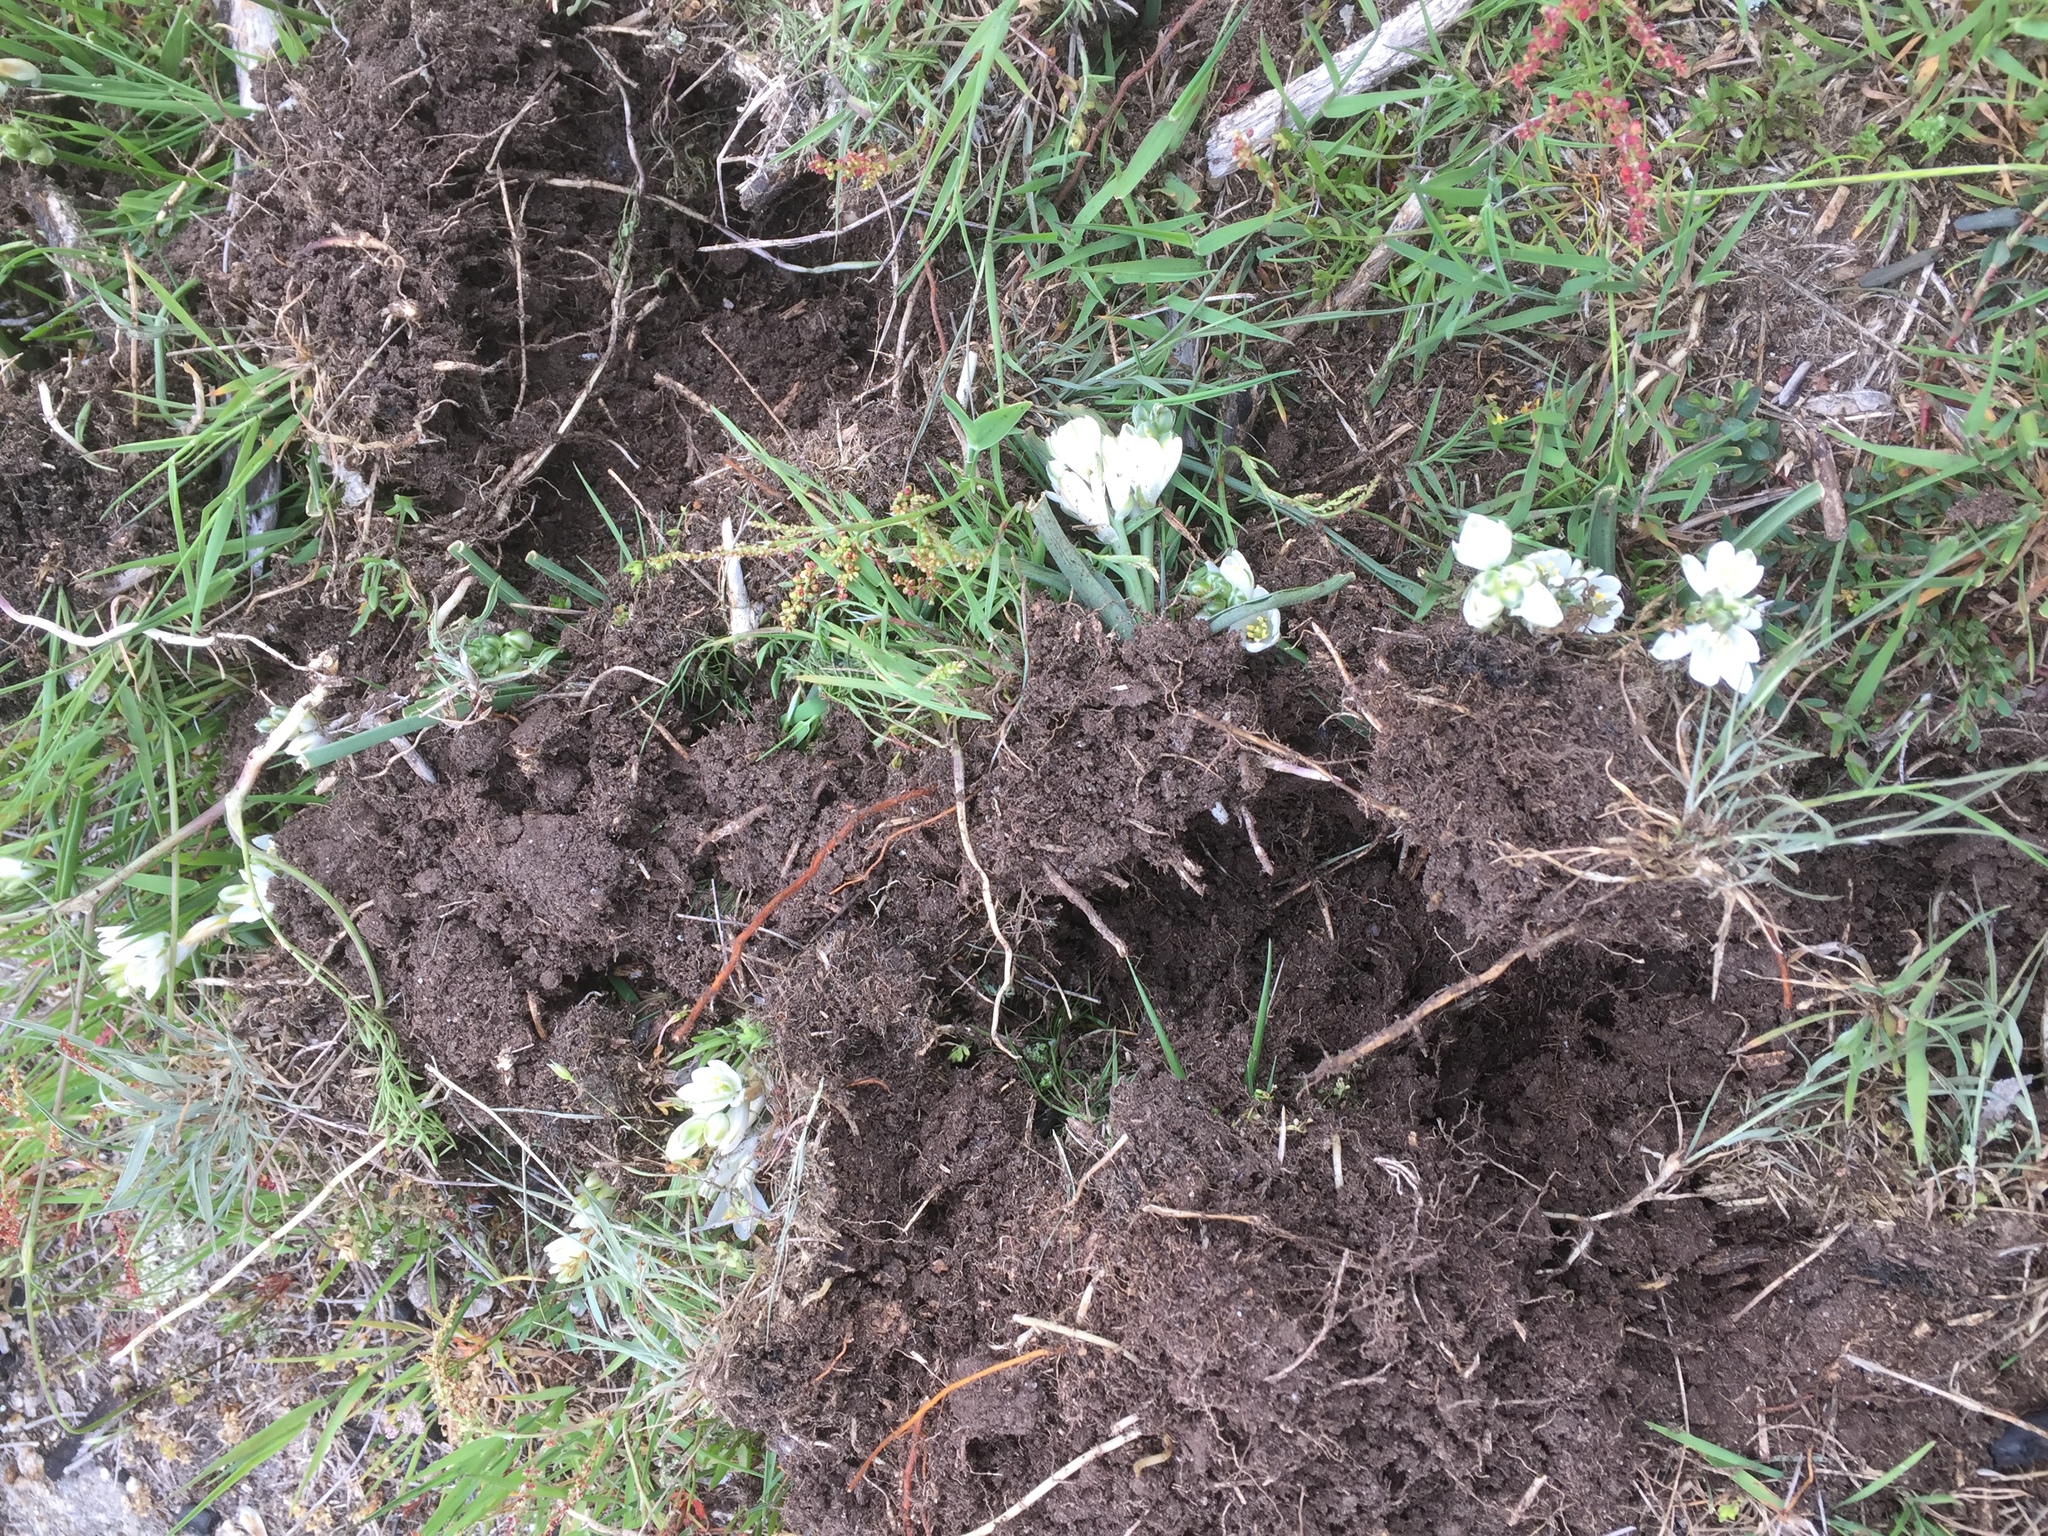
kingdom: Animalia
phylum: Chordata
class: Mammalia
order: Artiodactyla
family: Suidae
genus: Sus
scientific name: Sus scrofa
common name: Wild boar
